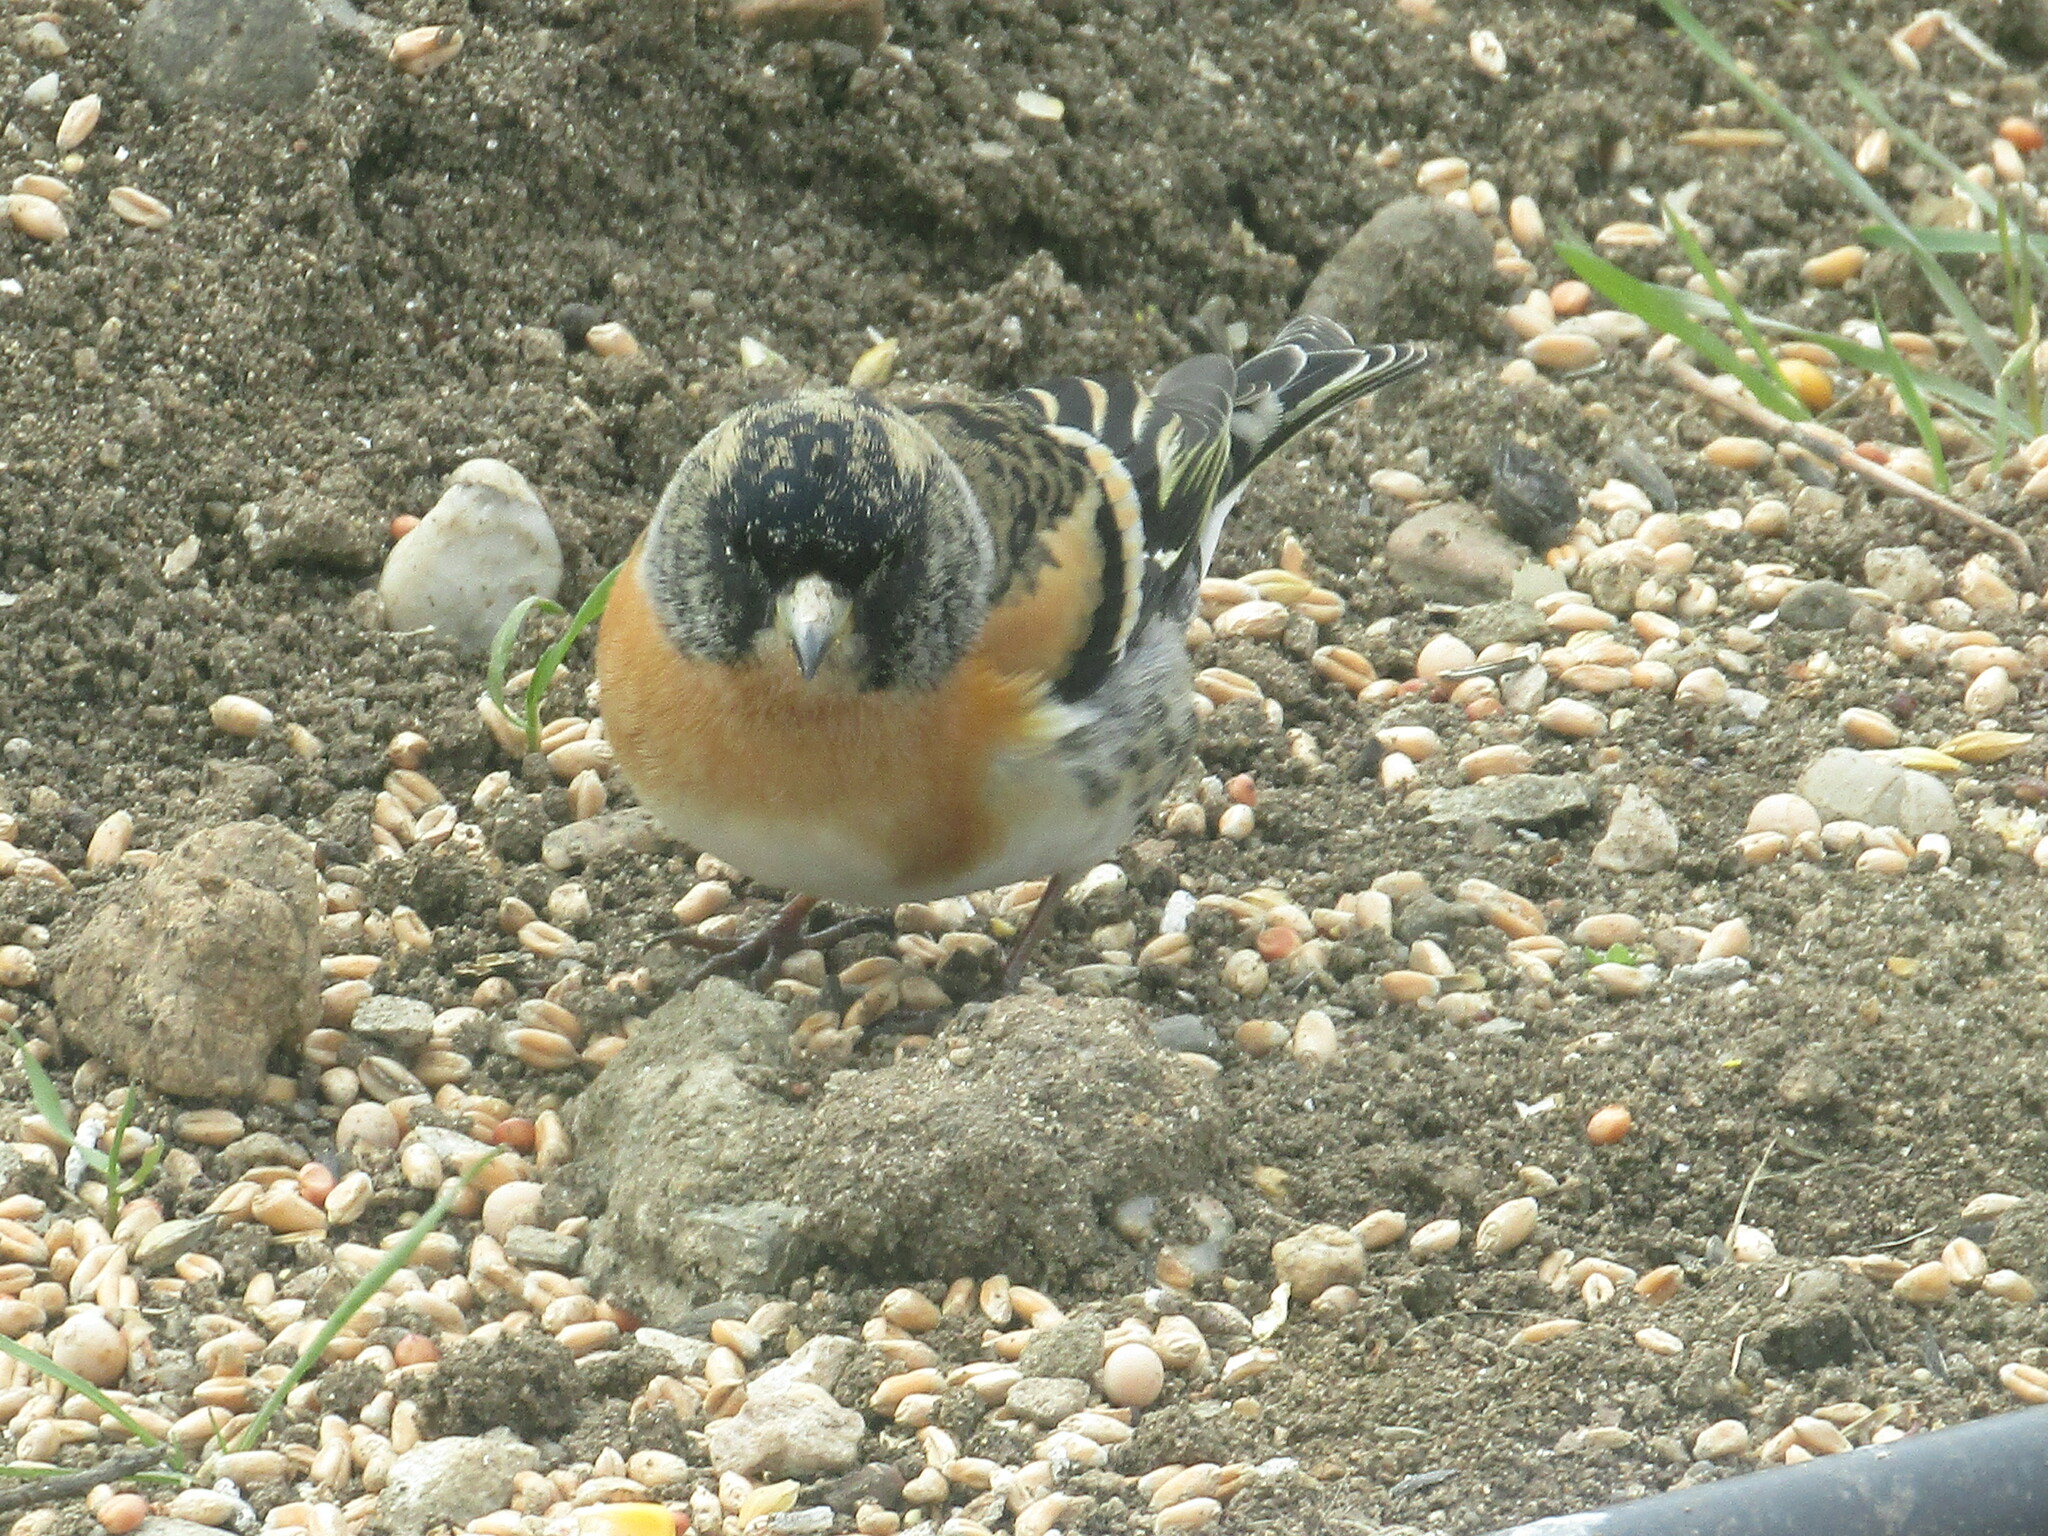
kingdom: Animalia
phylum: Chordata
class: Aves
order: Passeriformes
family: Fringillidae
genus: Fringilla
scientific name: Fringilla montifringilla
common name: Brambling
